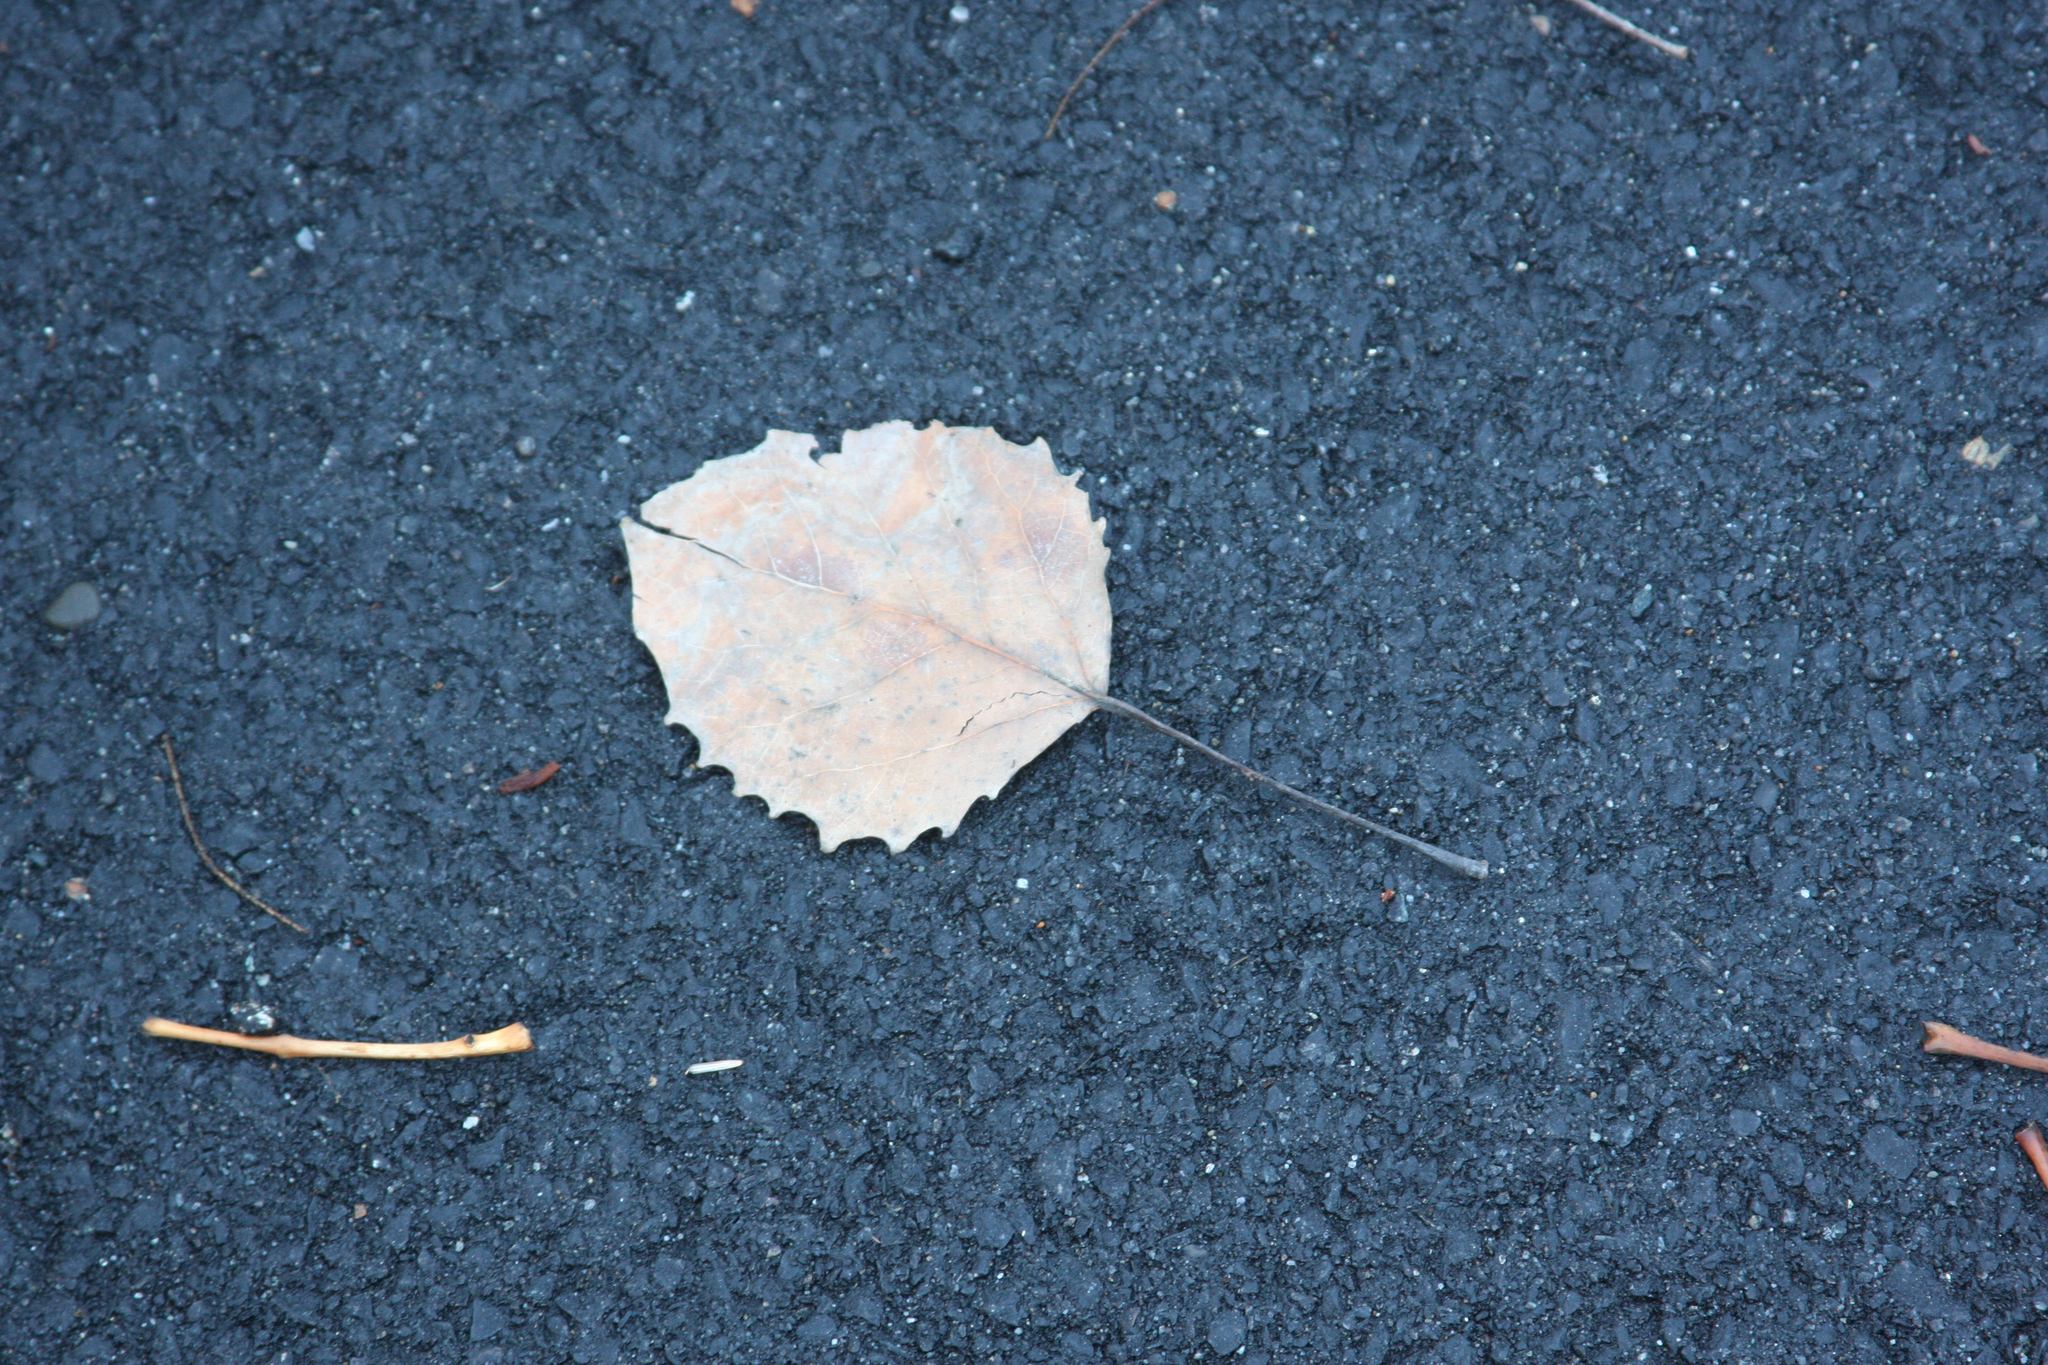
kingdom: Plantae
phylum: Tracheophyta
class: Magnoliopsida
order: Malpighiales
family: Salicaceae
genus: Populus
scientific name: Populus grandidentata
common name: Bigtooth aspen
